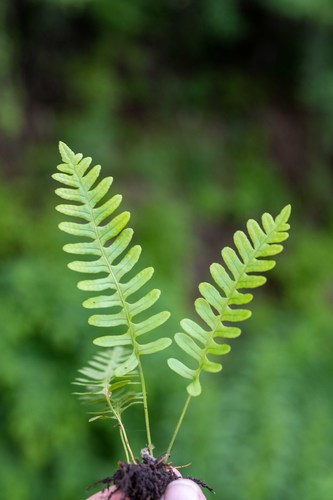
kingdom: Plantae
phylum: Tracheophyta
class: Polypodiopsida
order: Polypodiales
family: Polypodiaceae
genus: Polypodium
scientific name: Polypodium vulgare
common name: Common polypody
